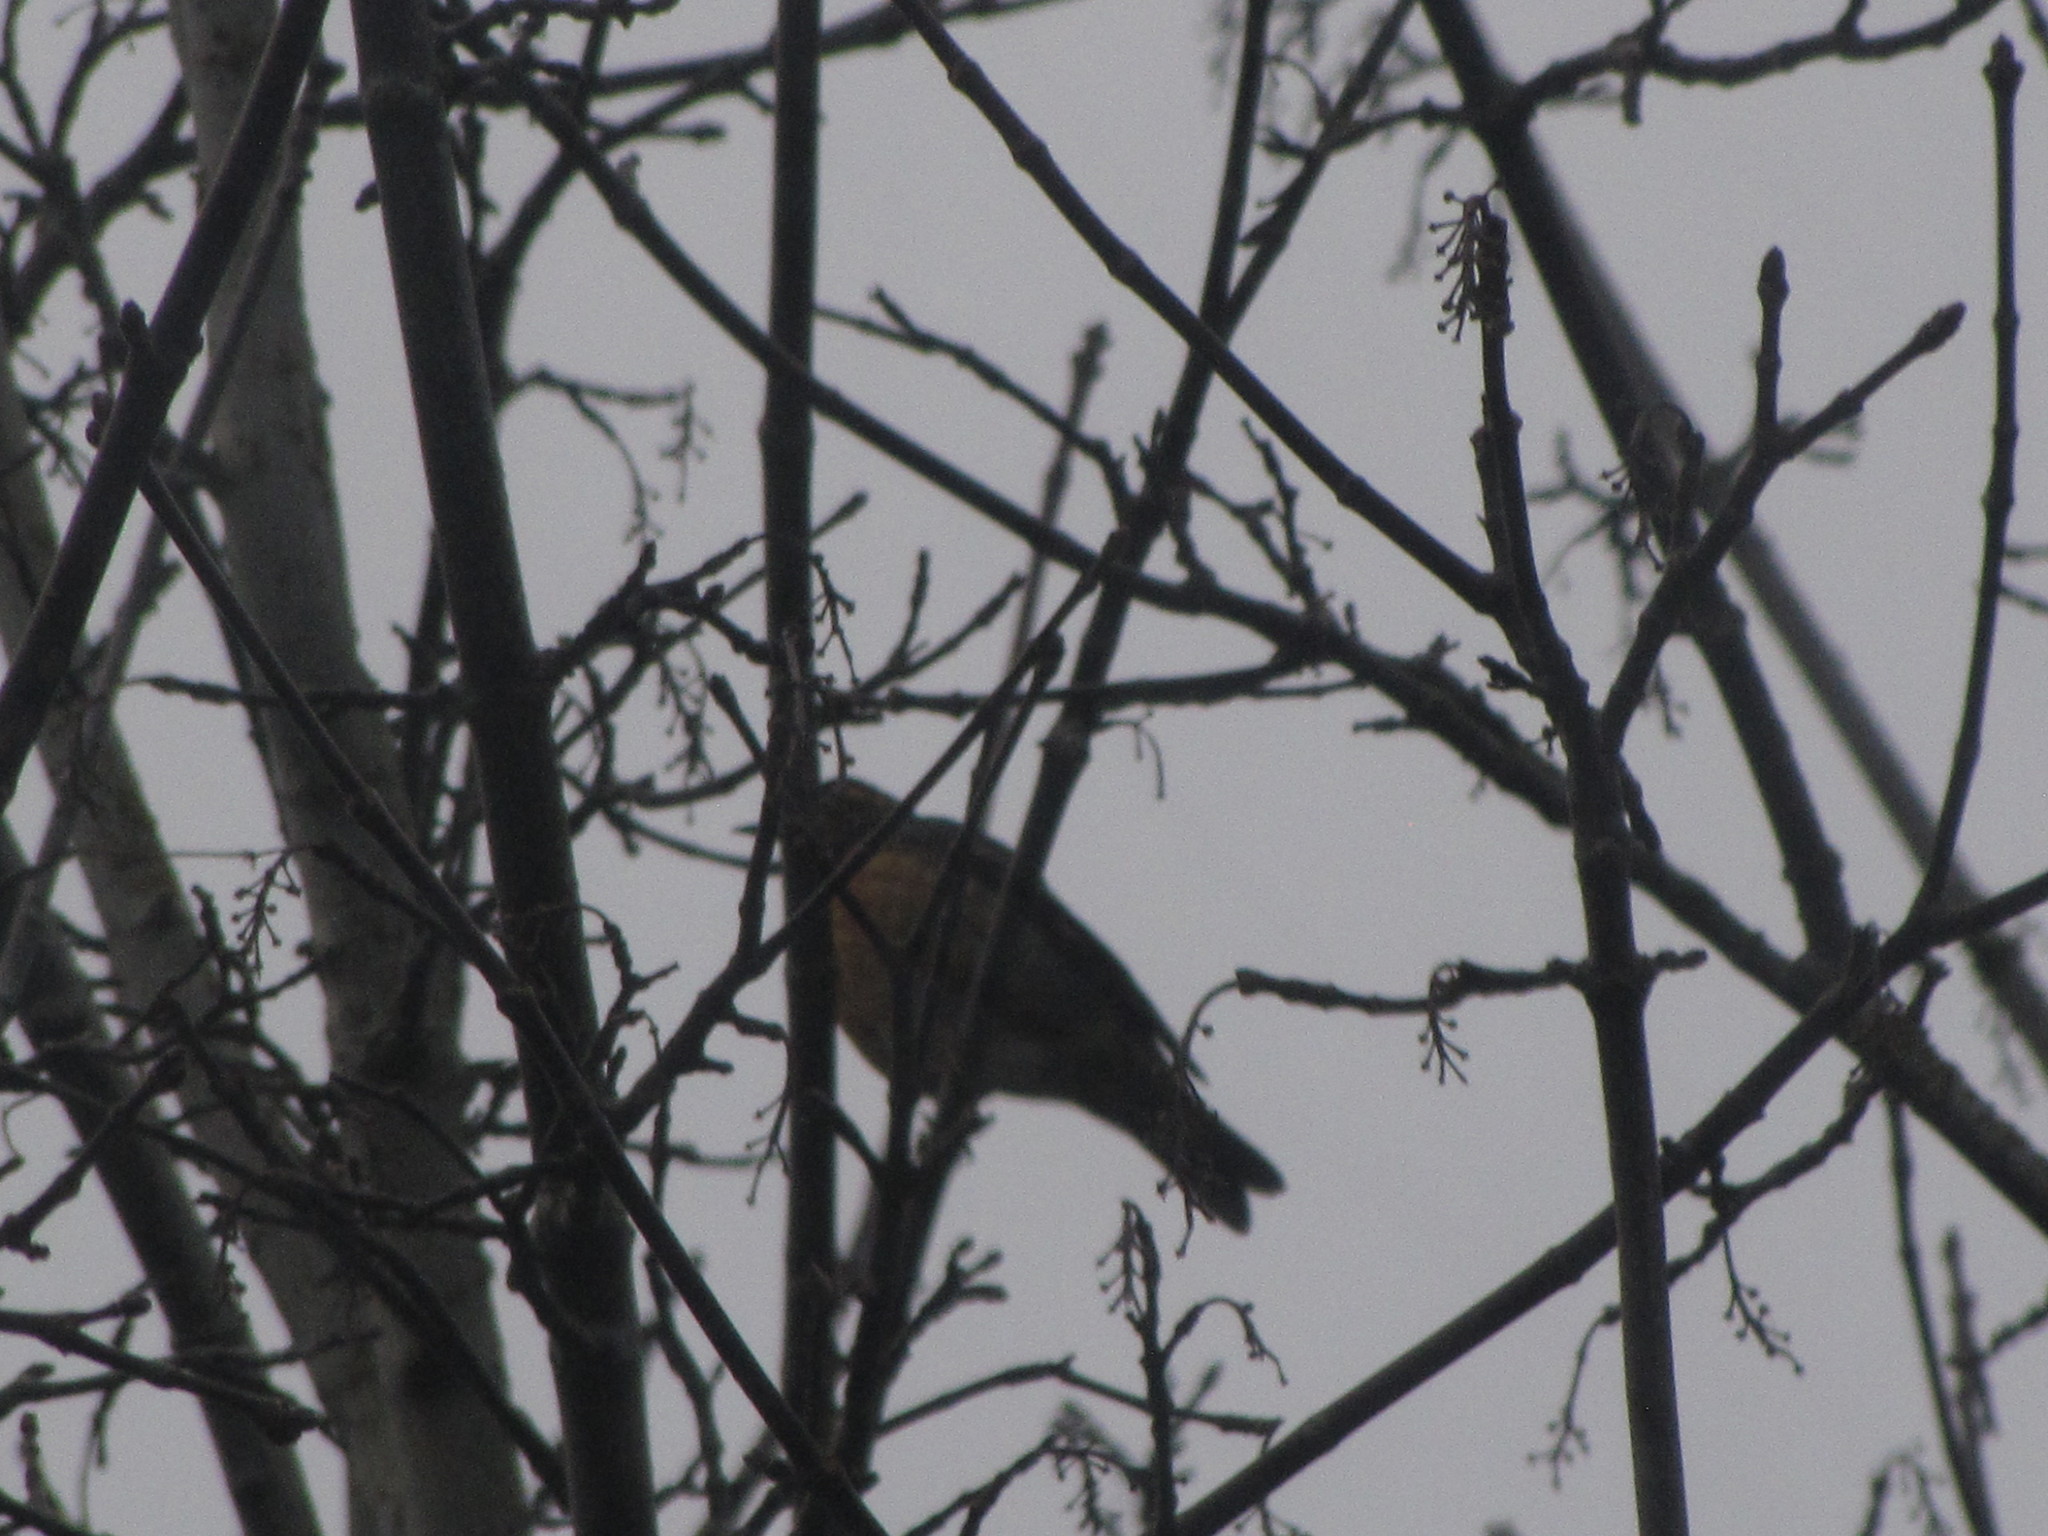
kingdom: Animalia
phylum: Chordata
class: Aves
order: Passeriformes
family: Turdidae
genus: Turdus
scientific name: Turdus migratorius
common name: American robin
